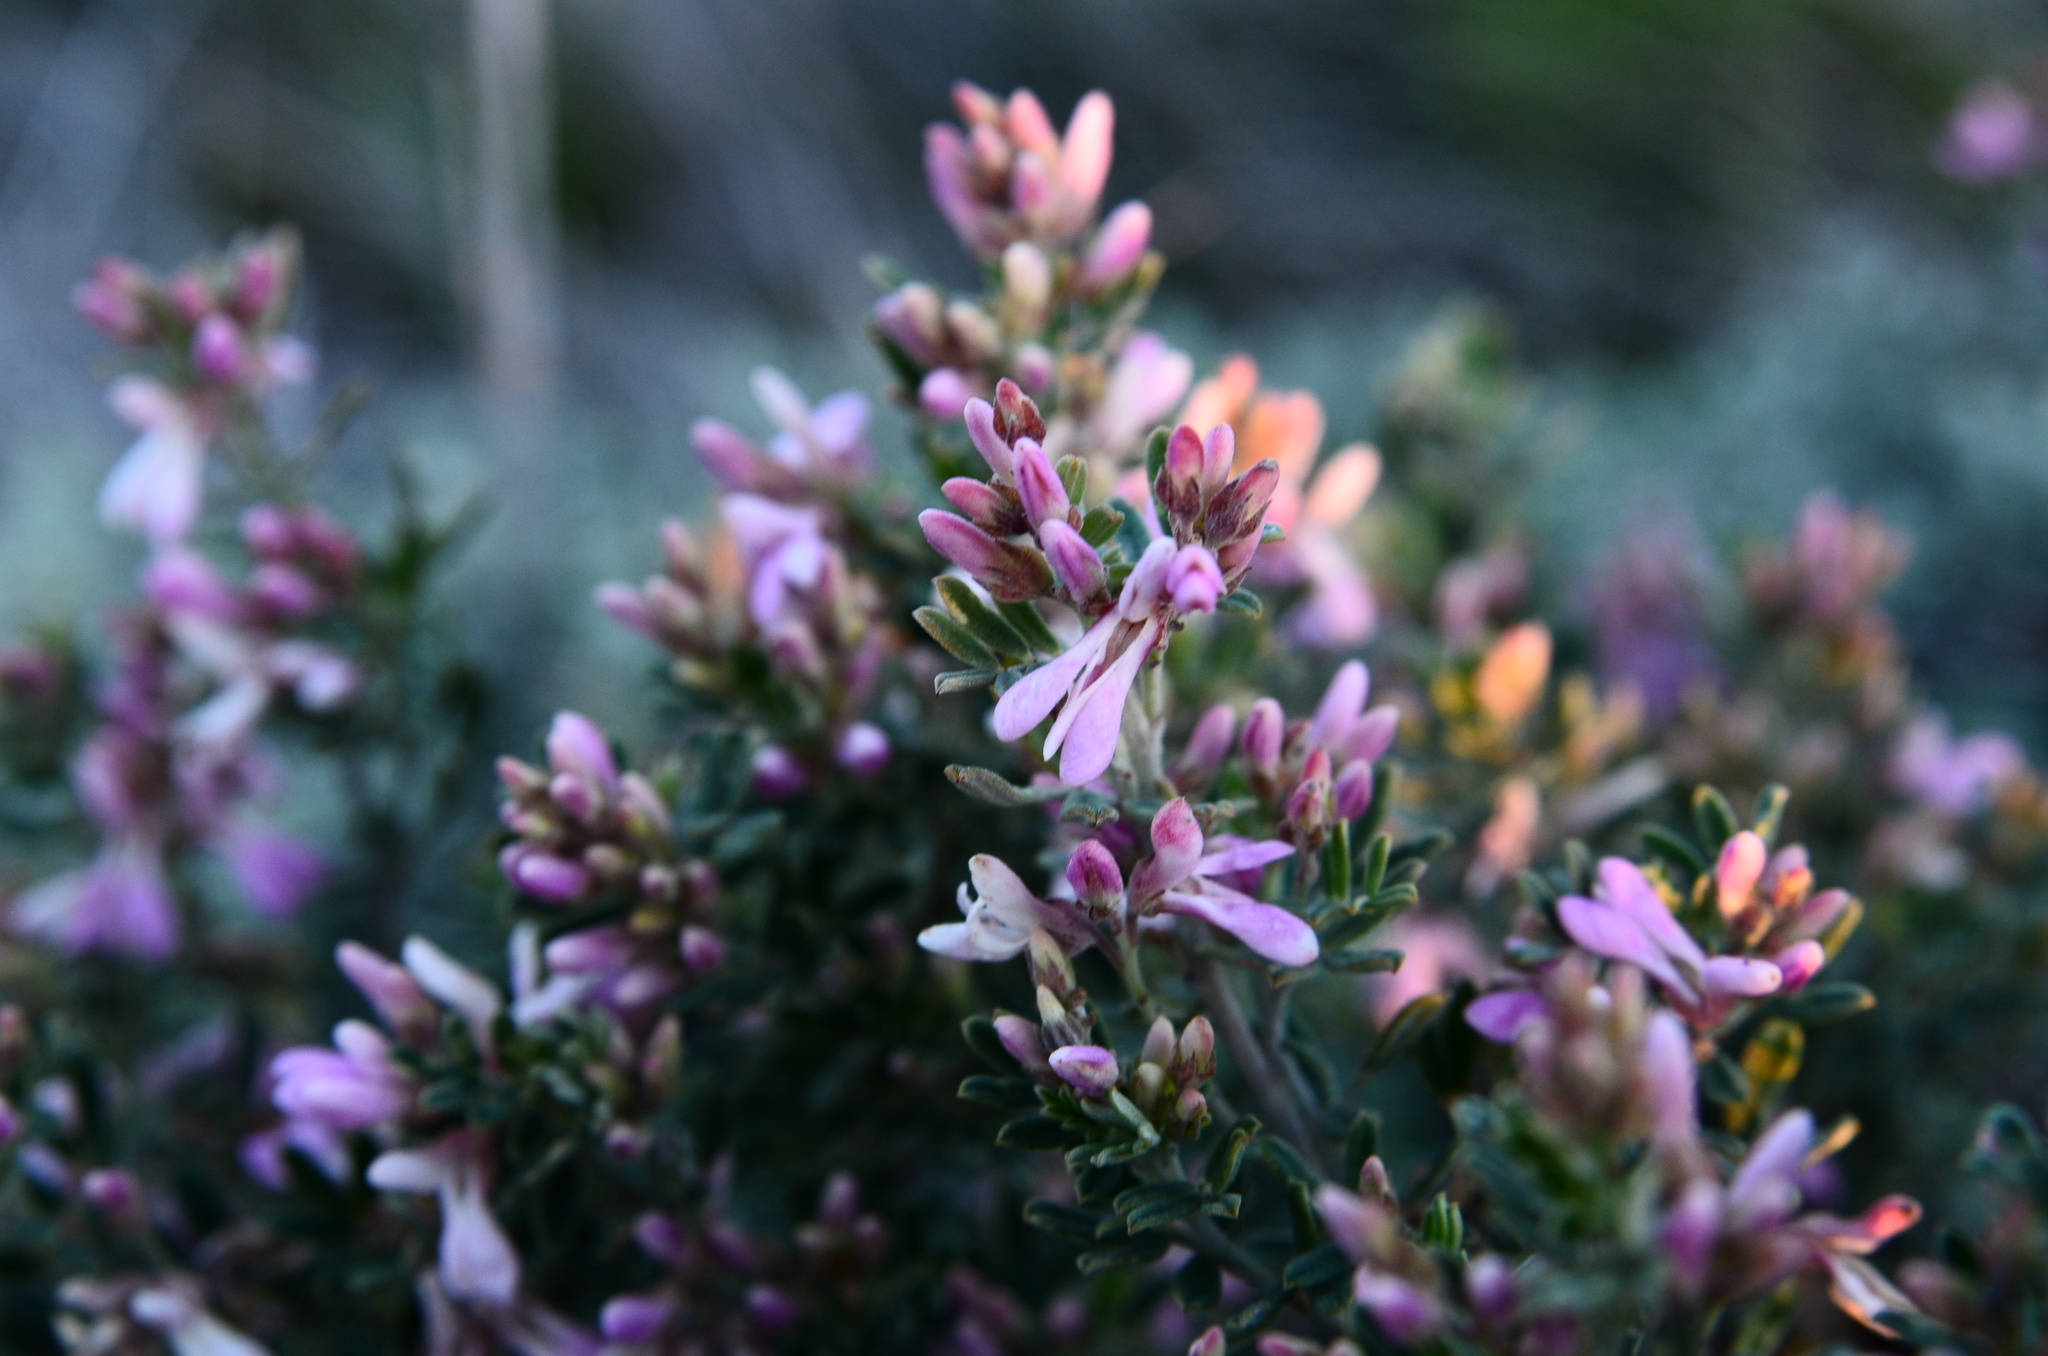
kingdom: Plantae
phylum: Tracheophyta
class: Magnoliopsida
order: Fabales
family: Fabaceae
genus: Indigofera
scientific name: Indigofera brachystachya
